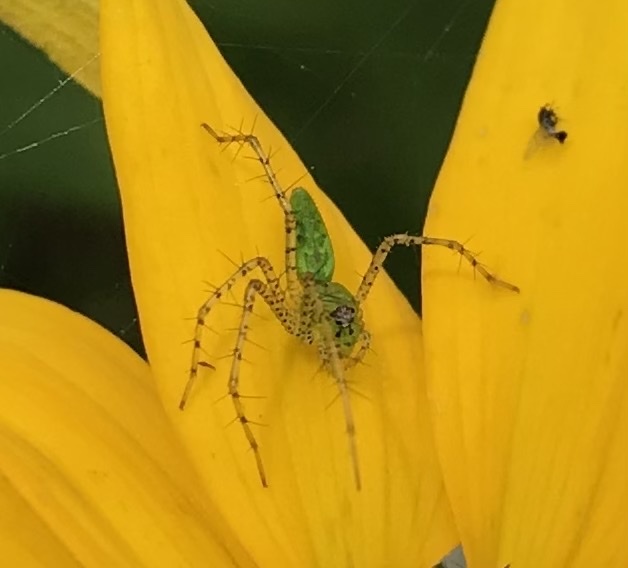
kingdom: Animalia
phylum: Arthropoda
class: Arachnida
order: Araneae
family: Oxyopidae
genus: Peucetia
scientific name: Peucetia viridans
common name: Lynx spiders
